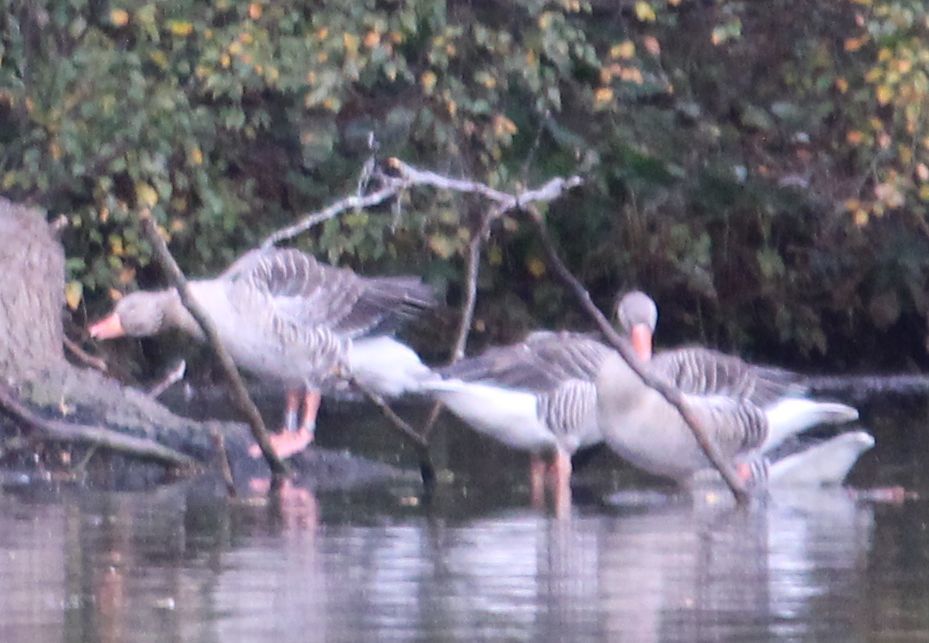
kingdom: Animalia
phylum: Chordata
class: Aves
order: Anseriformes
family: Anatidae
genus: Anser
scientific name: Anser anser
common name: Greylag goose
